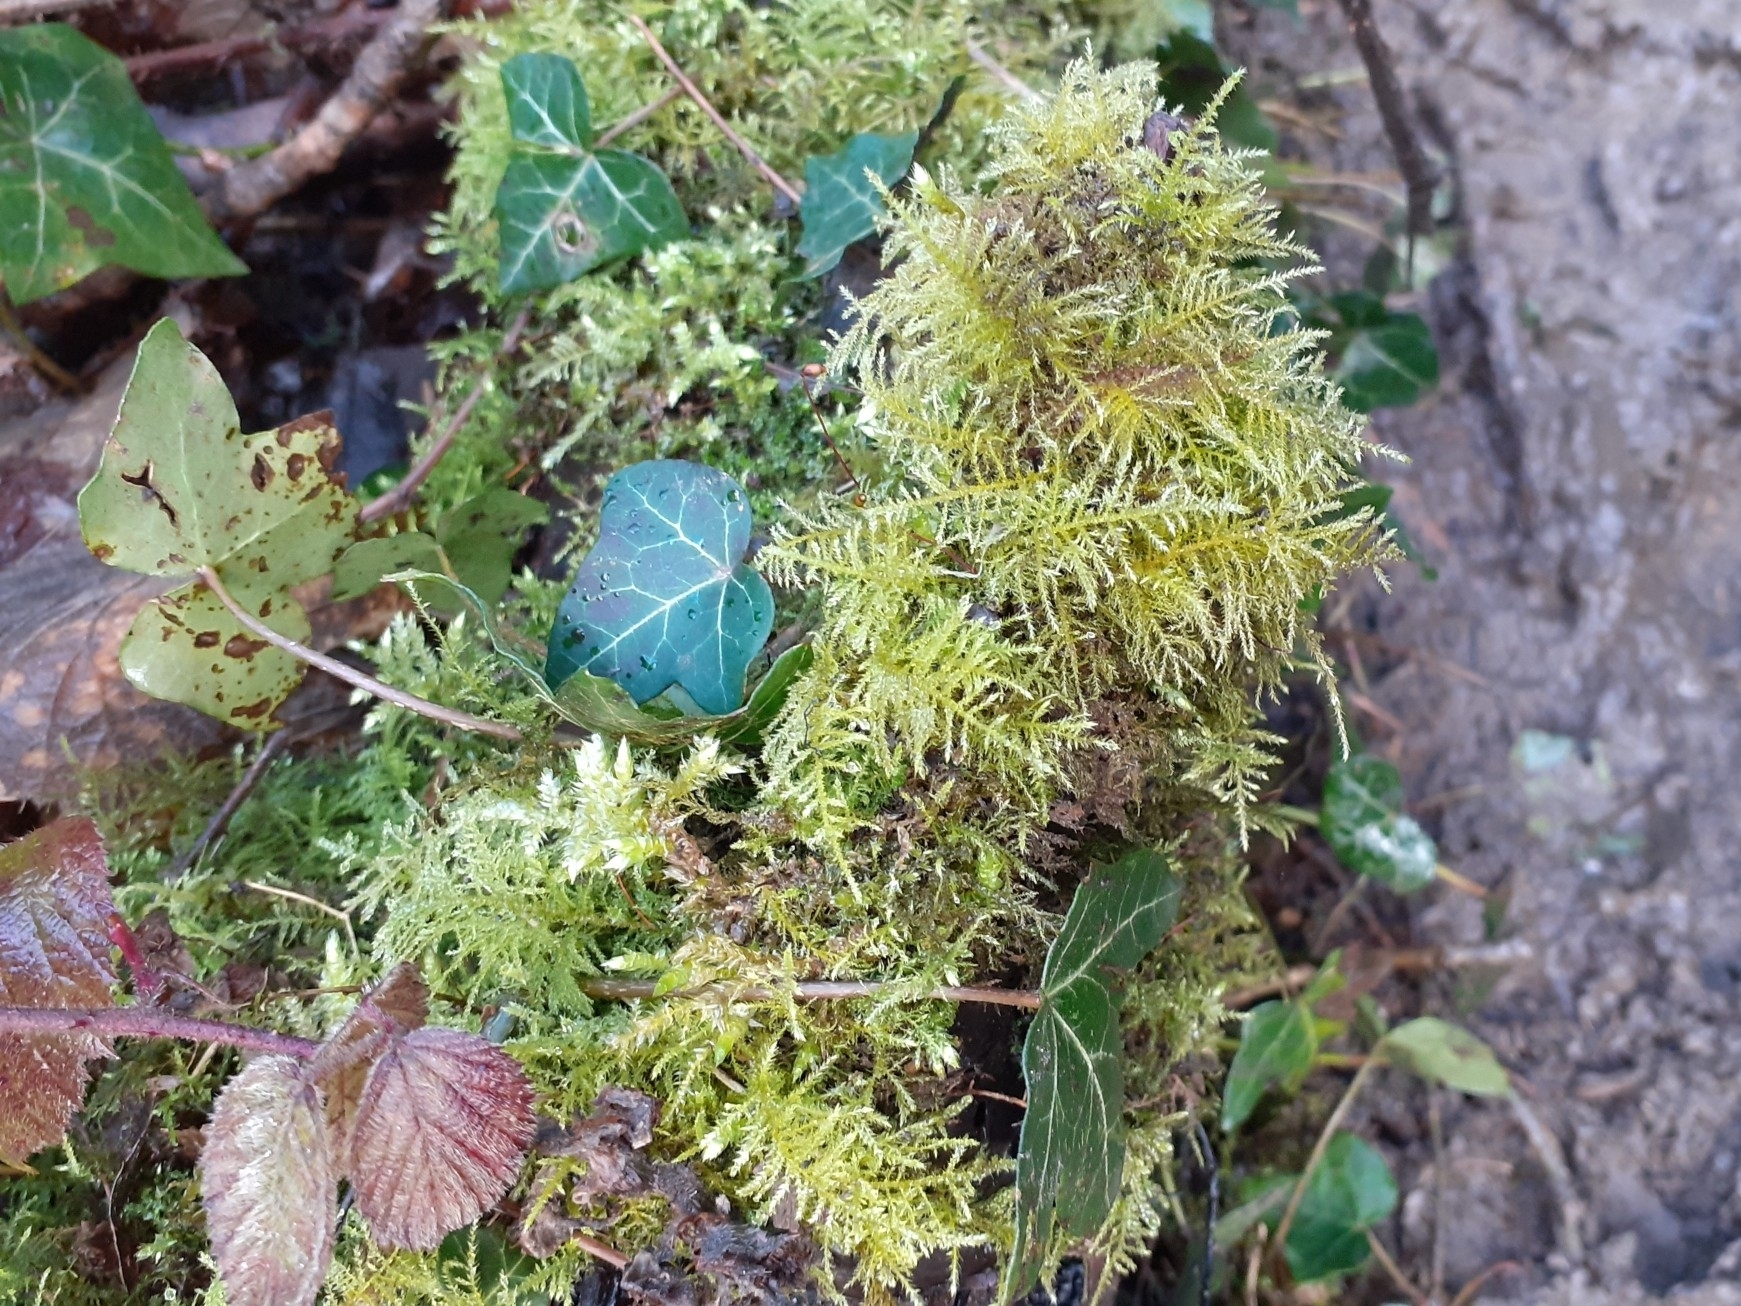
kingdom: Plantae
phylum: Bryophyta
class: Bryopsida
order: Hypnales
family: Brachytheciaceae
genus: Kindbergia
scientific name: Kindbergia praelonga
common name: Slender beaked moss
